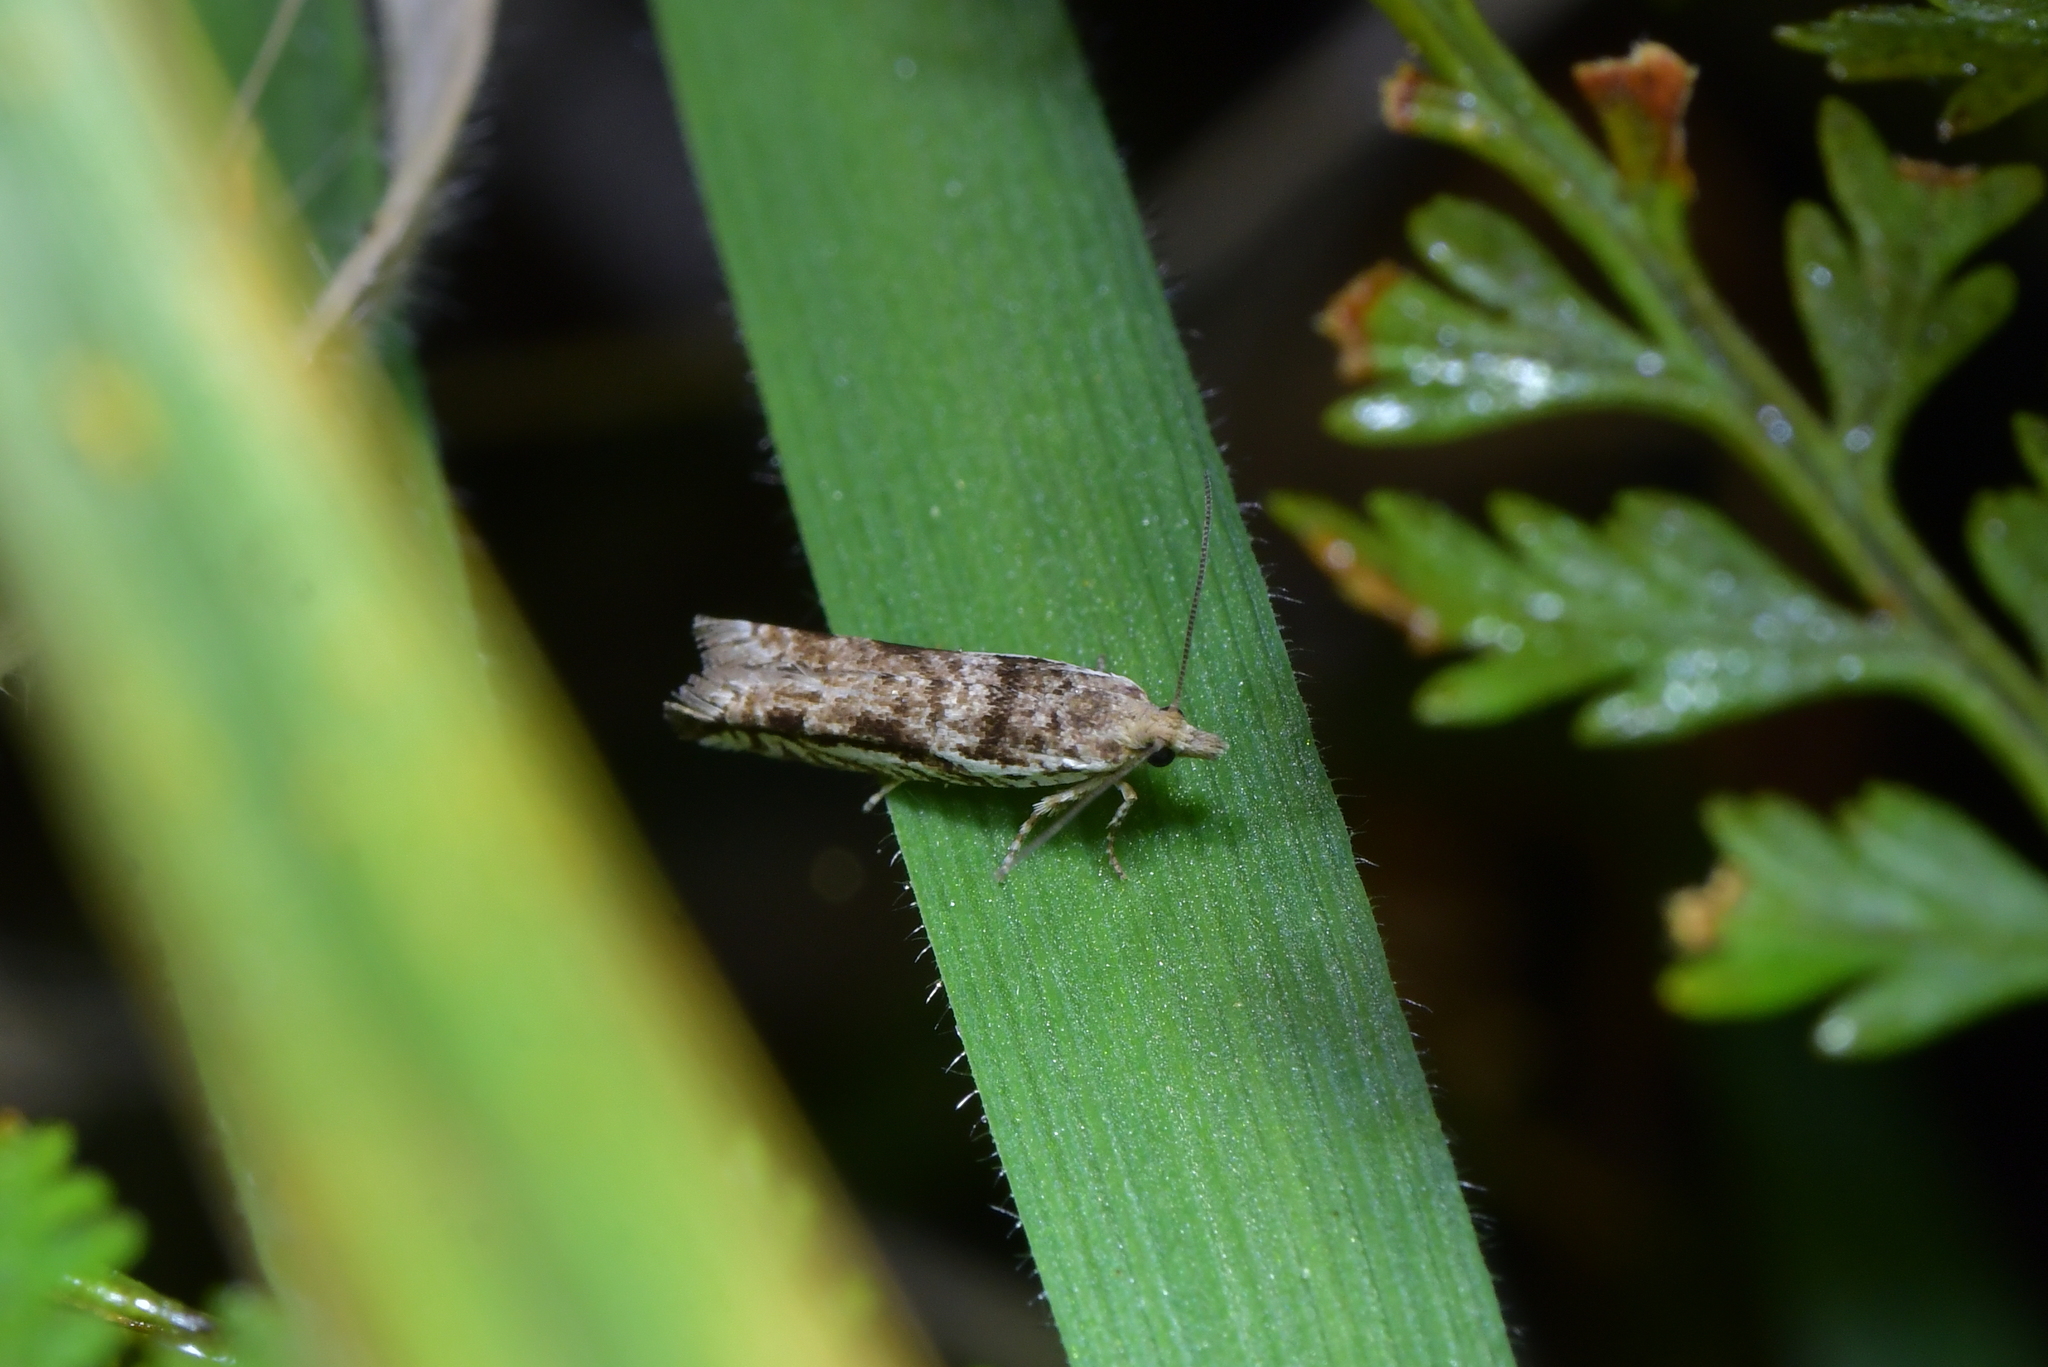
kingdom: Animalia
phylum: Arthropoda
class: Insecta
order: Lepidoptera
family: Tortricidae
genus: Holocola
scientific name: Holocola
